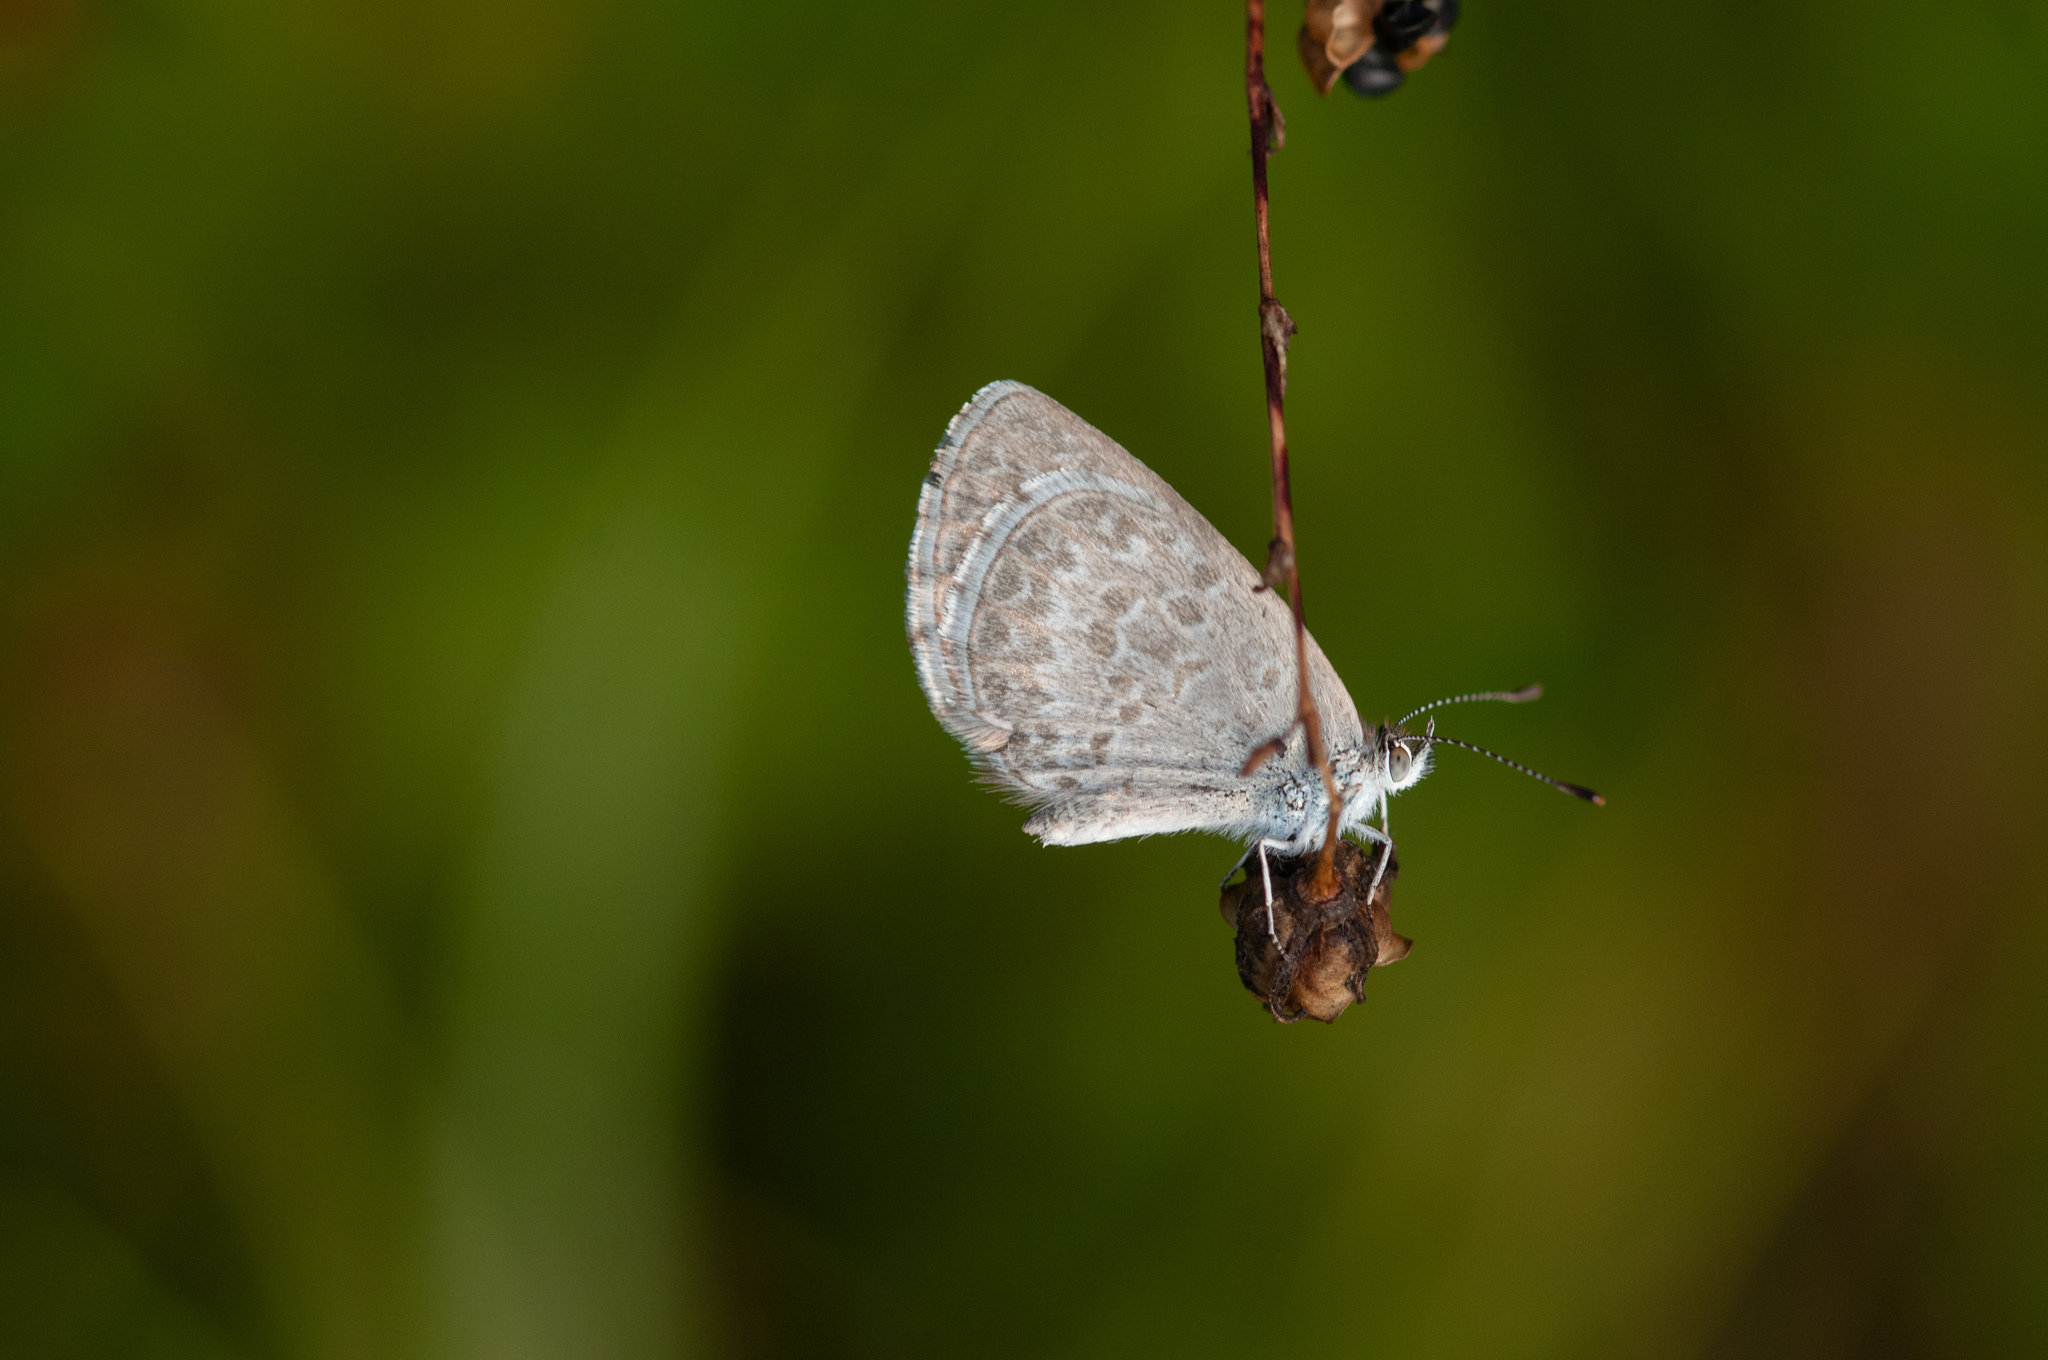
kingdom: Animalia
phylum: Arthropoda
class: Insecta
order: Lepidoptera
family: Lycaenidae
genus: Zizina
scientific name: Zizina otis
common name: Lesser grass blue
